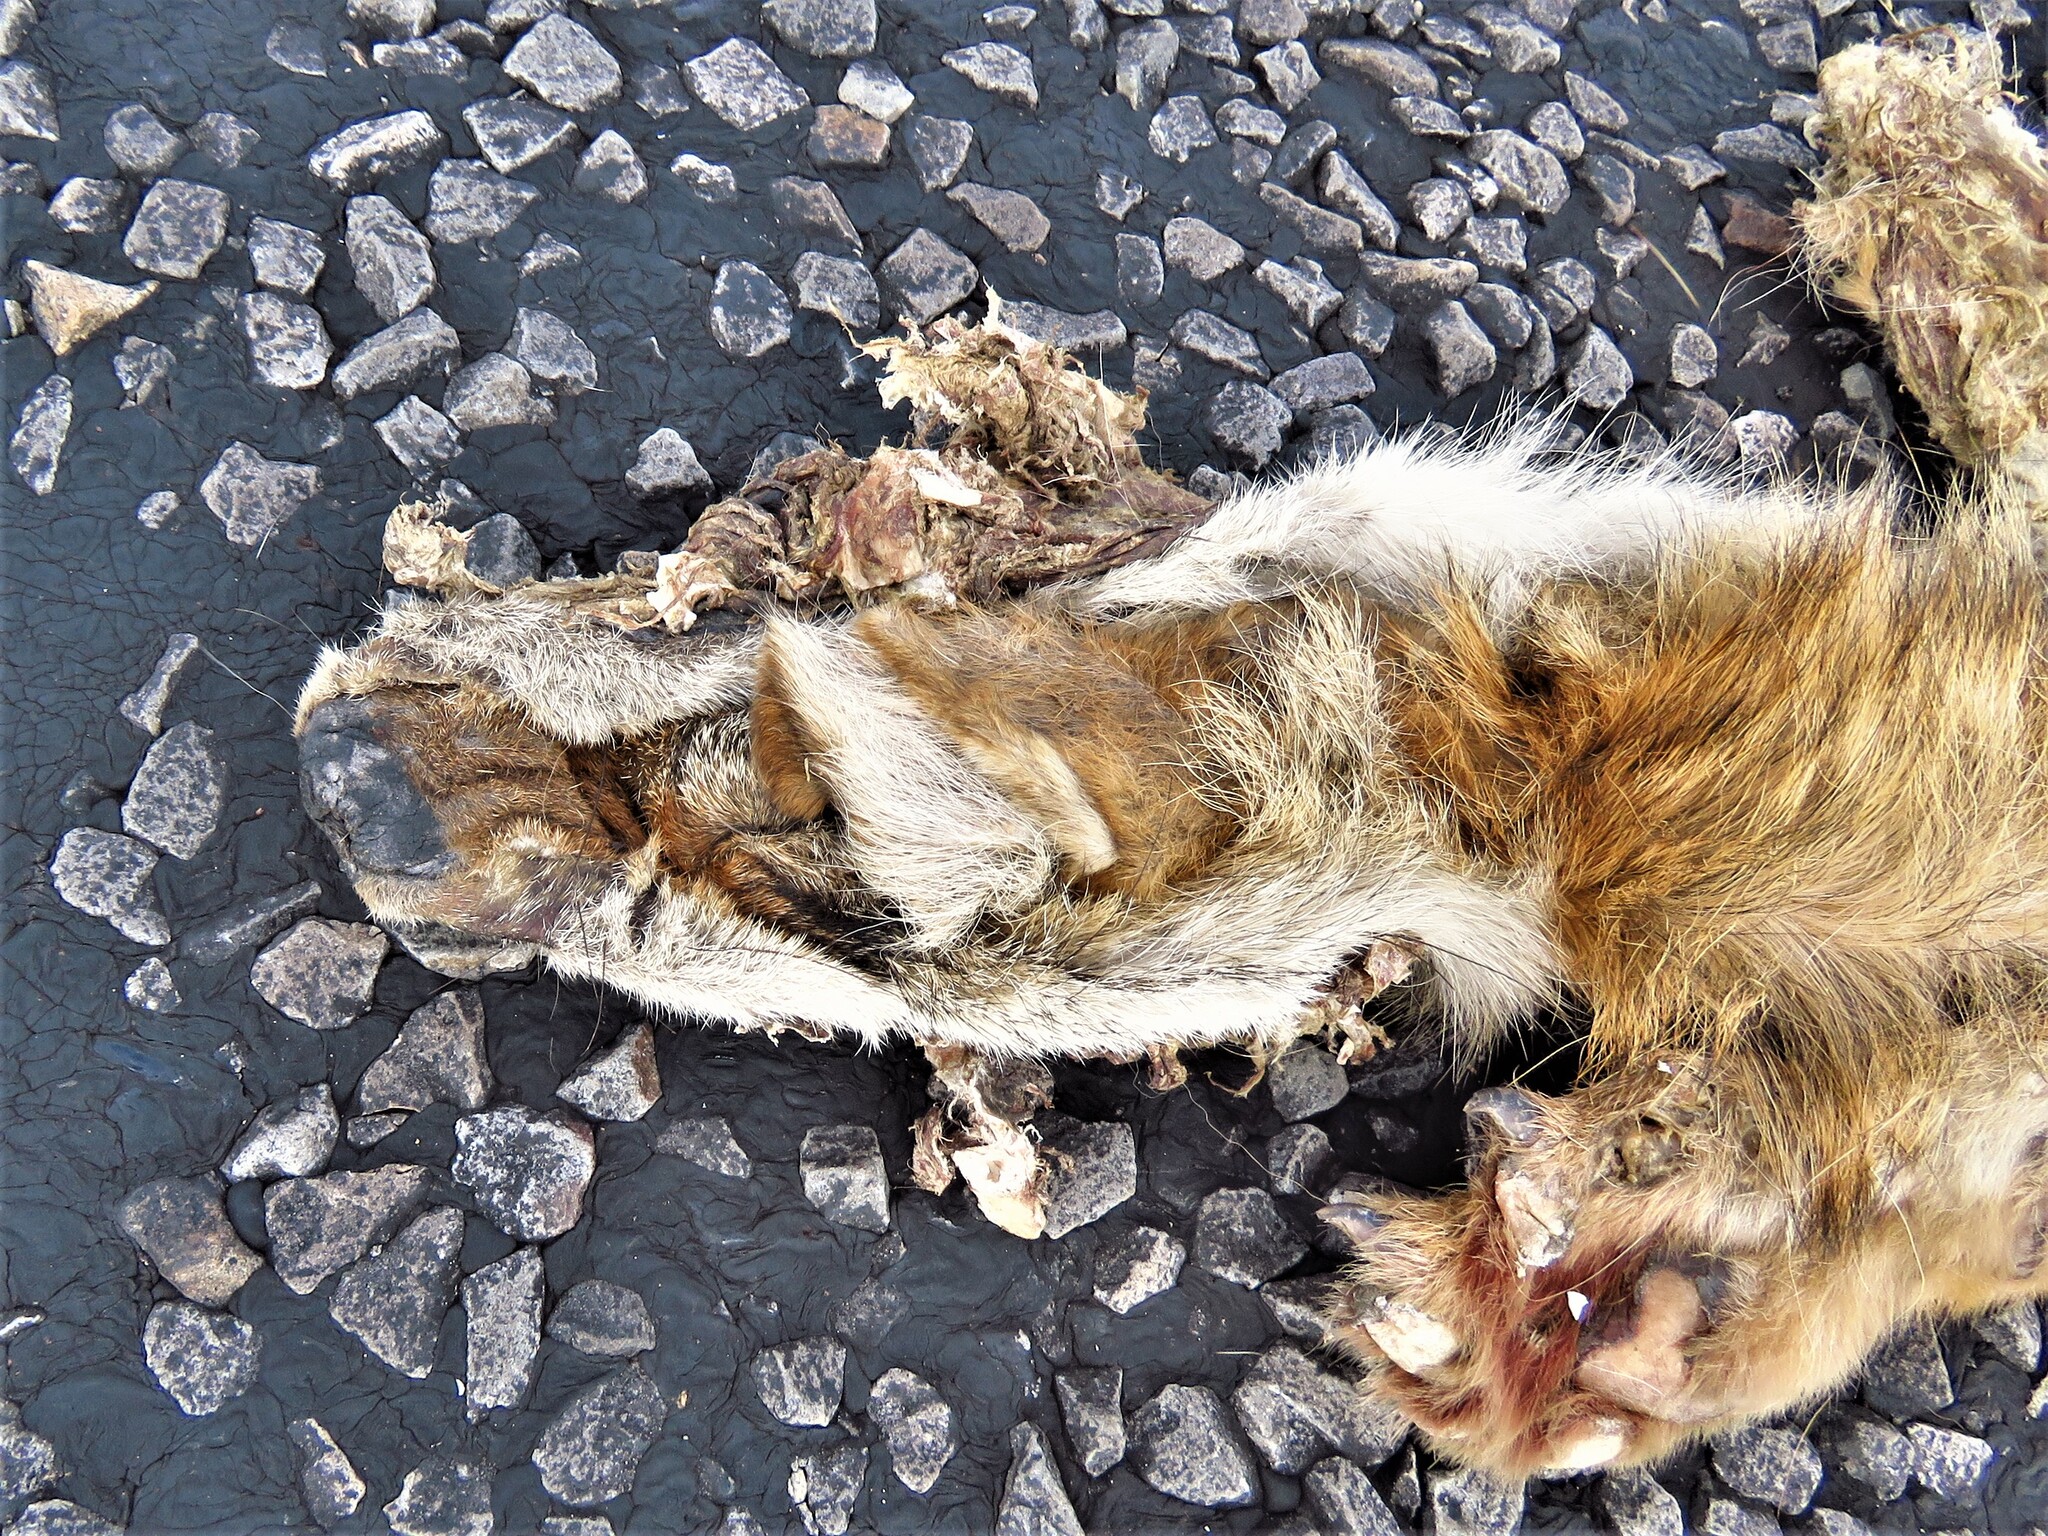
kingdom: Animalia
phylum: Chordata
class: Mammalia
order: Carnivora
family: Canidae
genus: Canis
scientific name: Canis latrans
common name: Coyote
